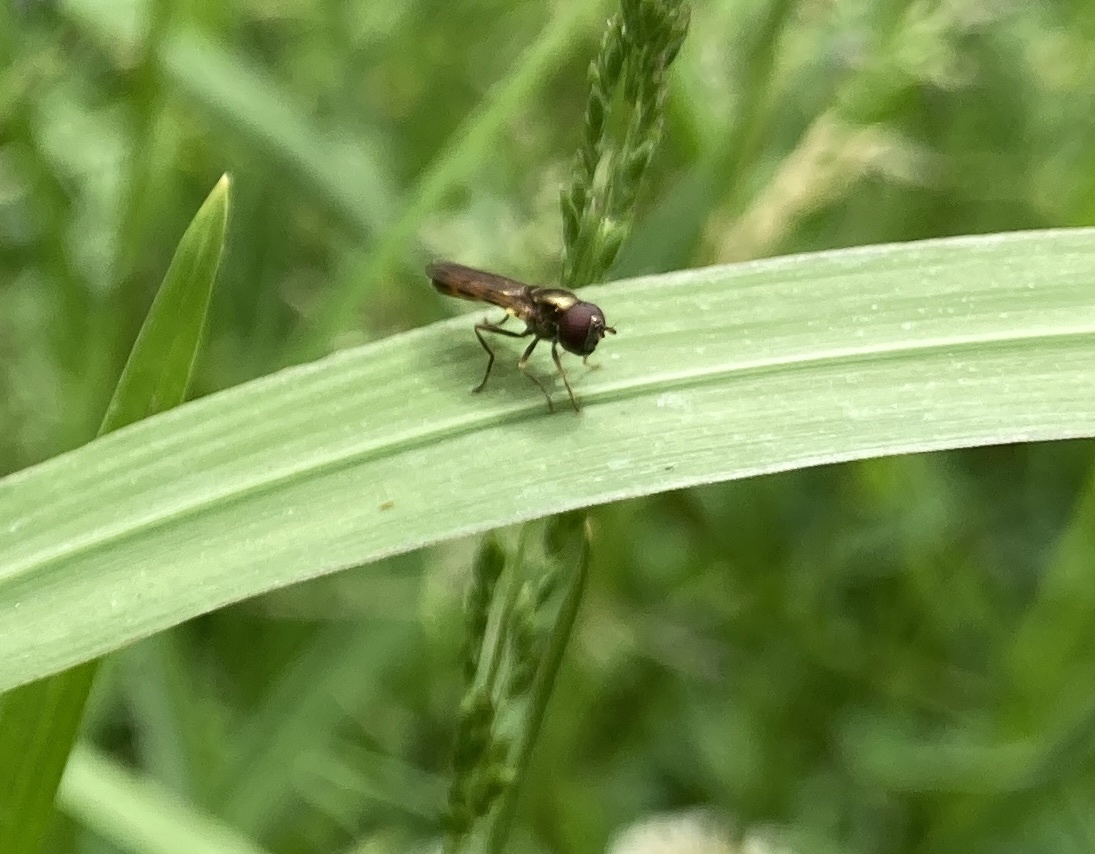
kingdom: Animalia
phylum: Arthropoda
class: Insecta
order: Diptera
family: Syrphidae
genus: Melanostoma
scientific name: Melanostoma fasciatum
